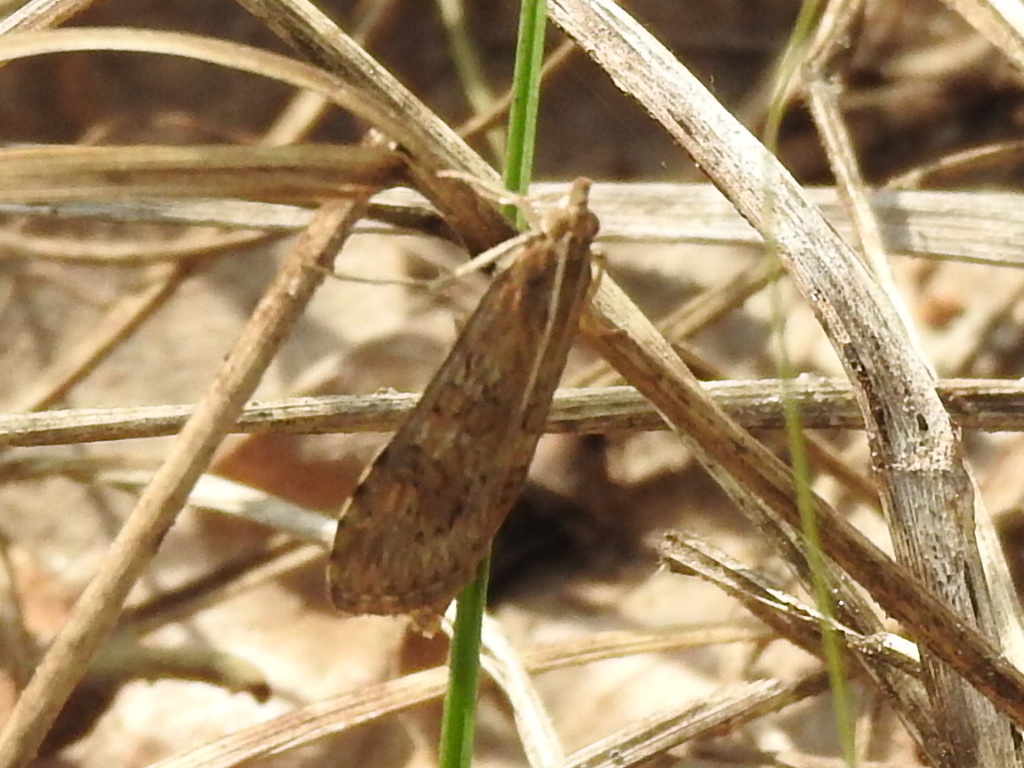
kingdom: Animalia
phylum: Arthropoda
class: Insecta
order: Lepidoptera
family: Crambidae
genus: Nomophila
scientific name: Nomophila nearctica
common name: American rush veneer
